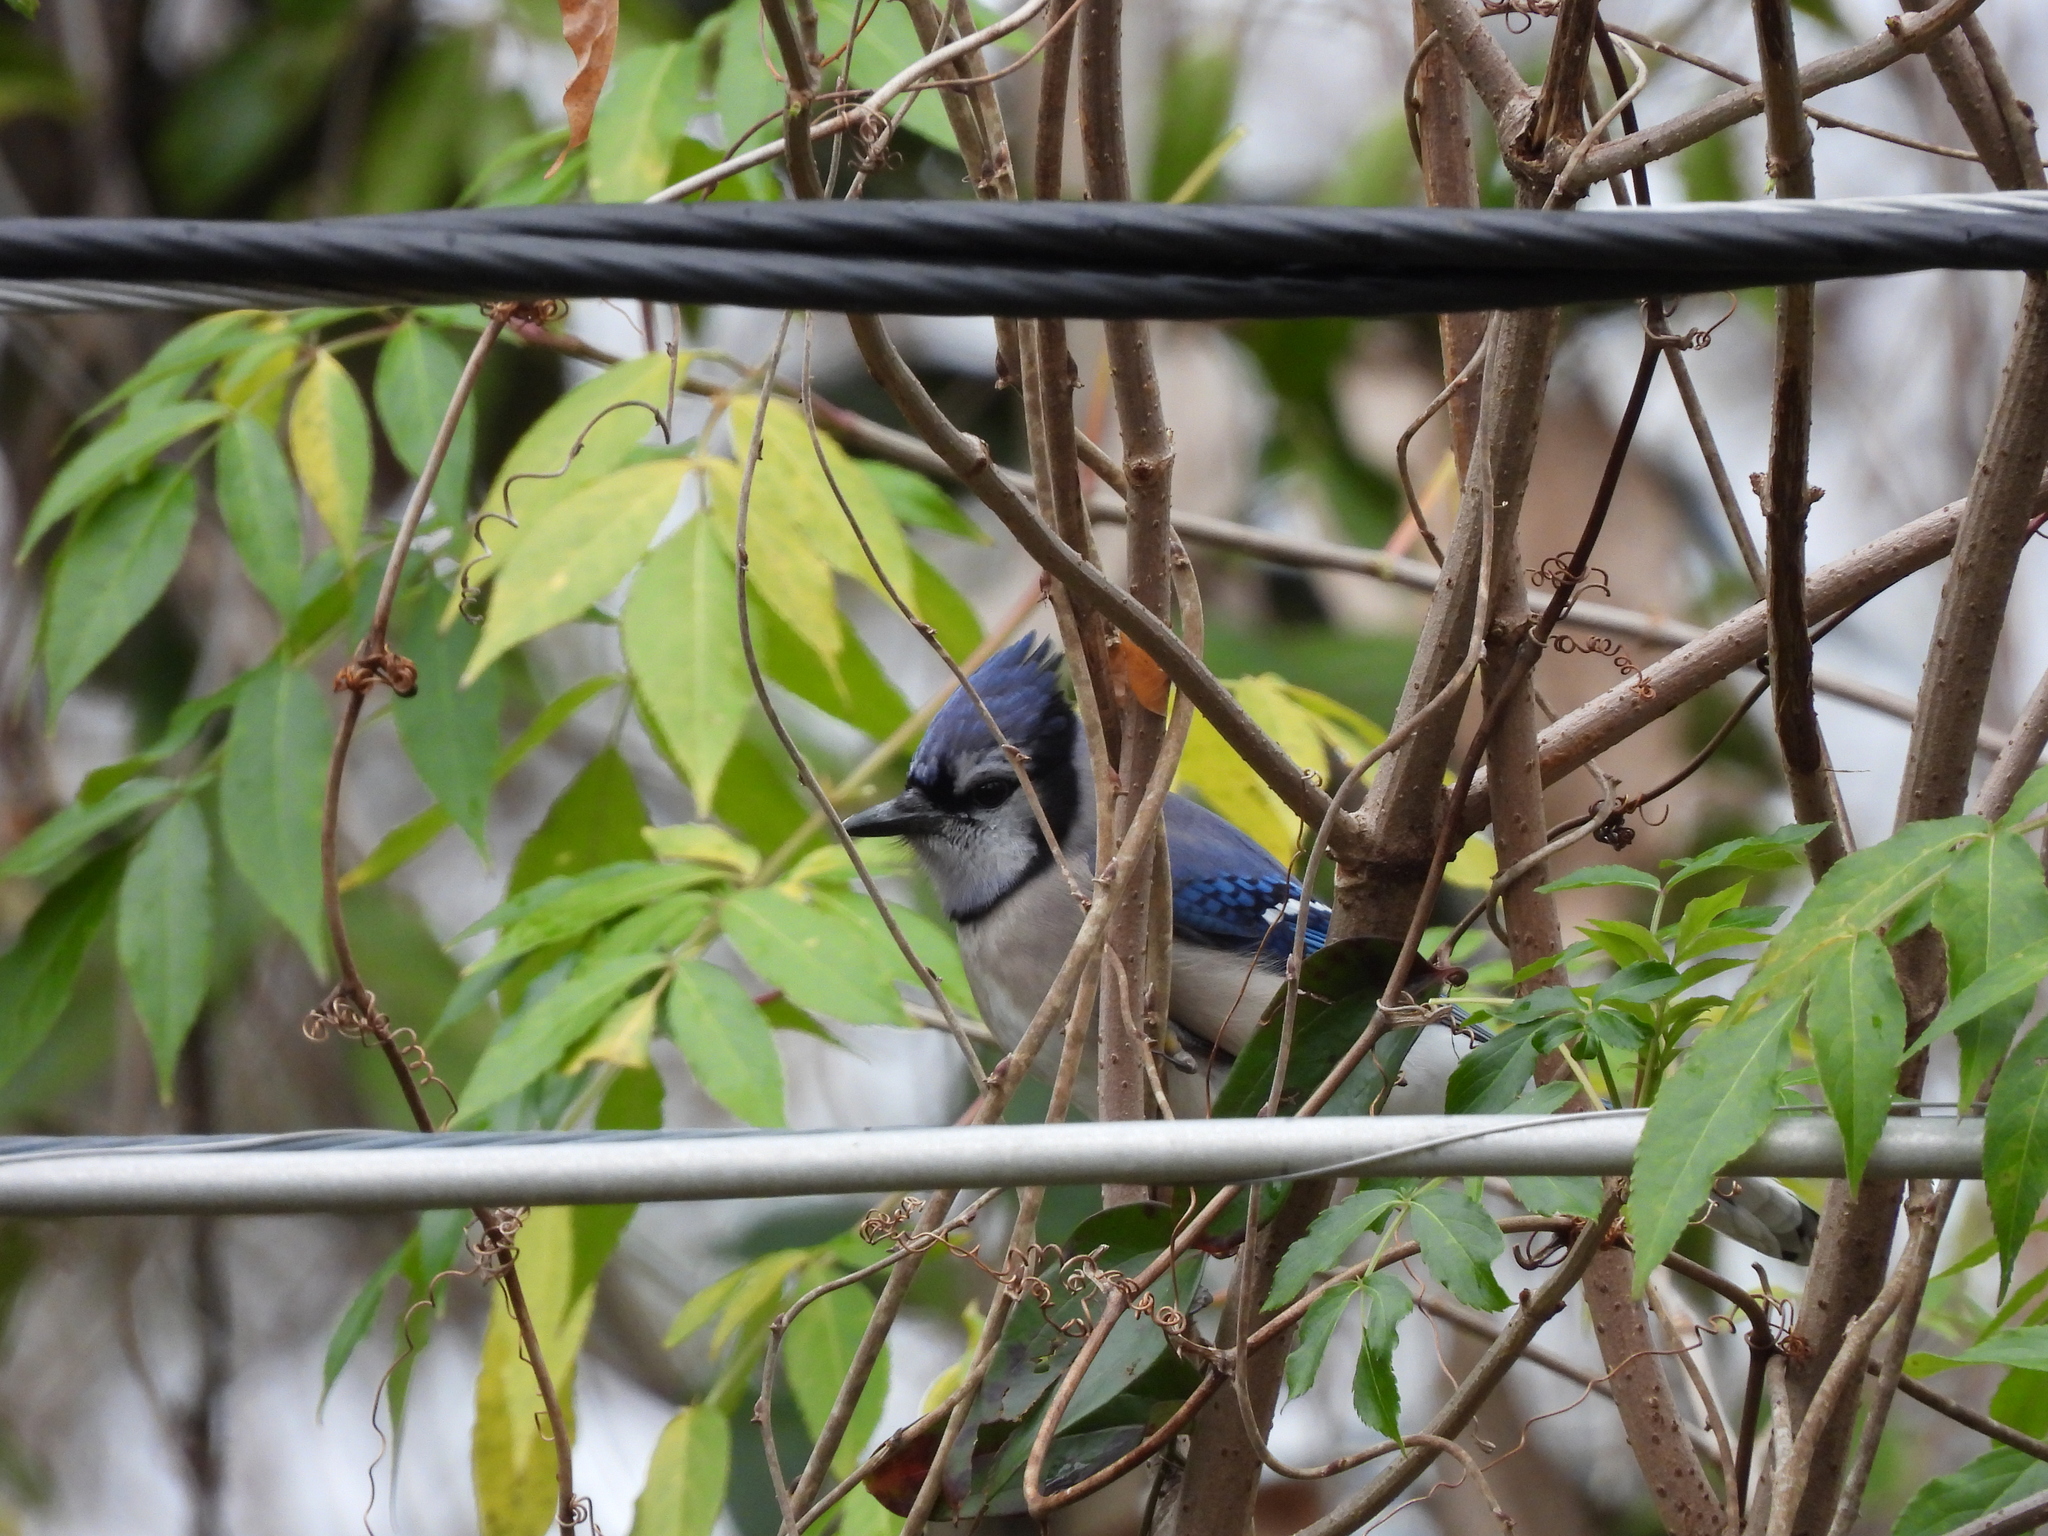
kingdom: Animalia
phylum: Chordata
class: Aves
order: Passeriformes
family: Corvidae
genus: Cyanocitta
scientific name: Cyanocitta cristata
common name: Blue jay
